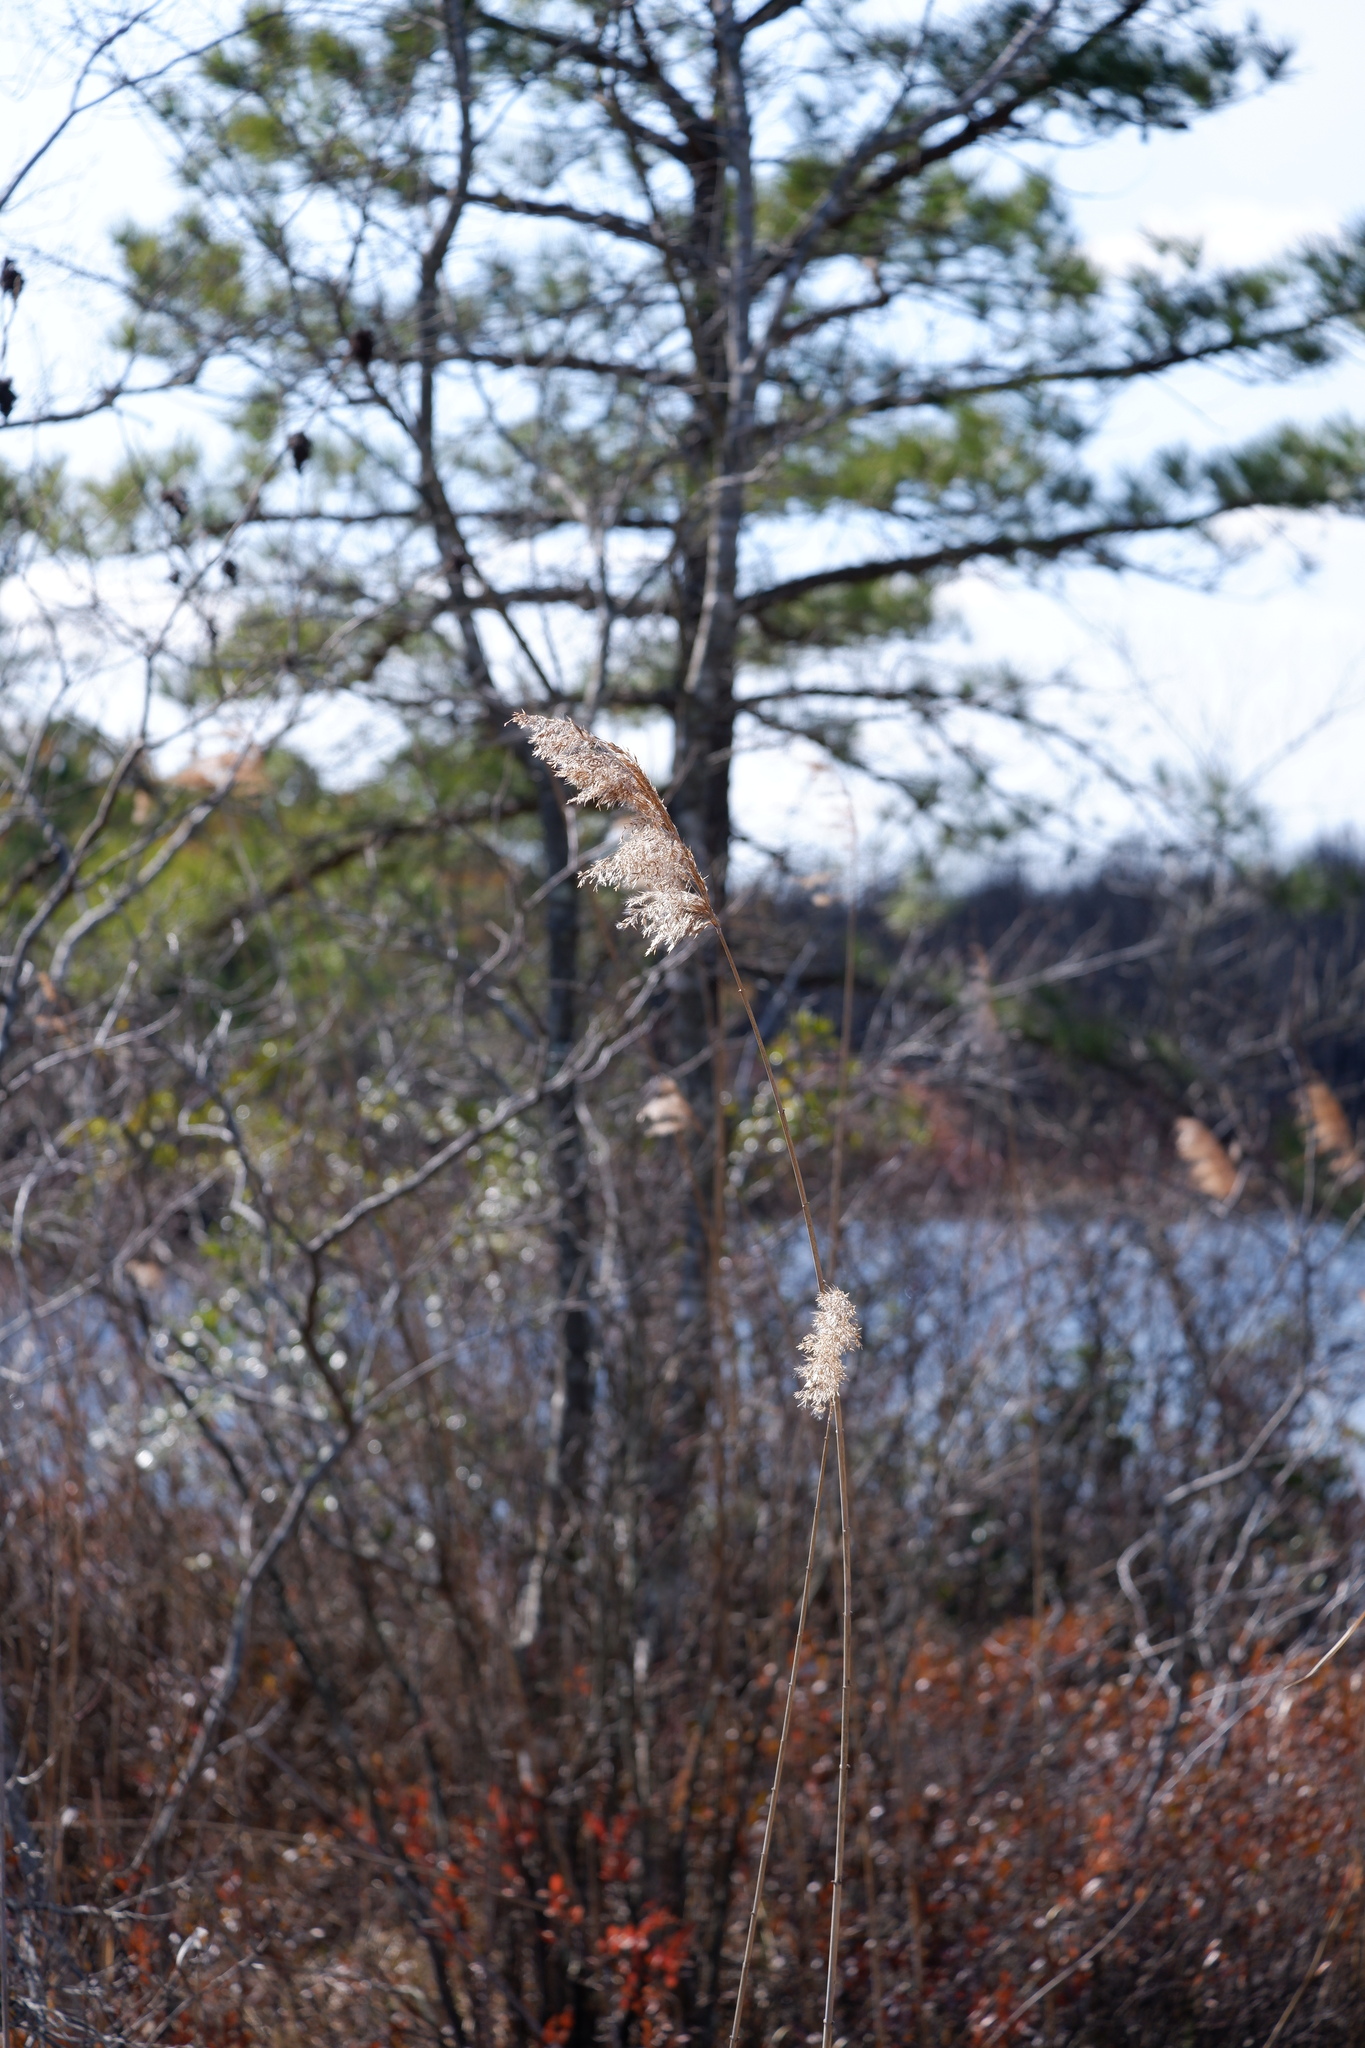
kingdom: Plantae
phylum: Tracheophyta
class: Liliopsida
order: Poales
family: Poaceae
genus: Phragmites
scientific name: Phragmites australis
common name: Common reed
